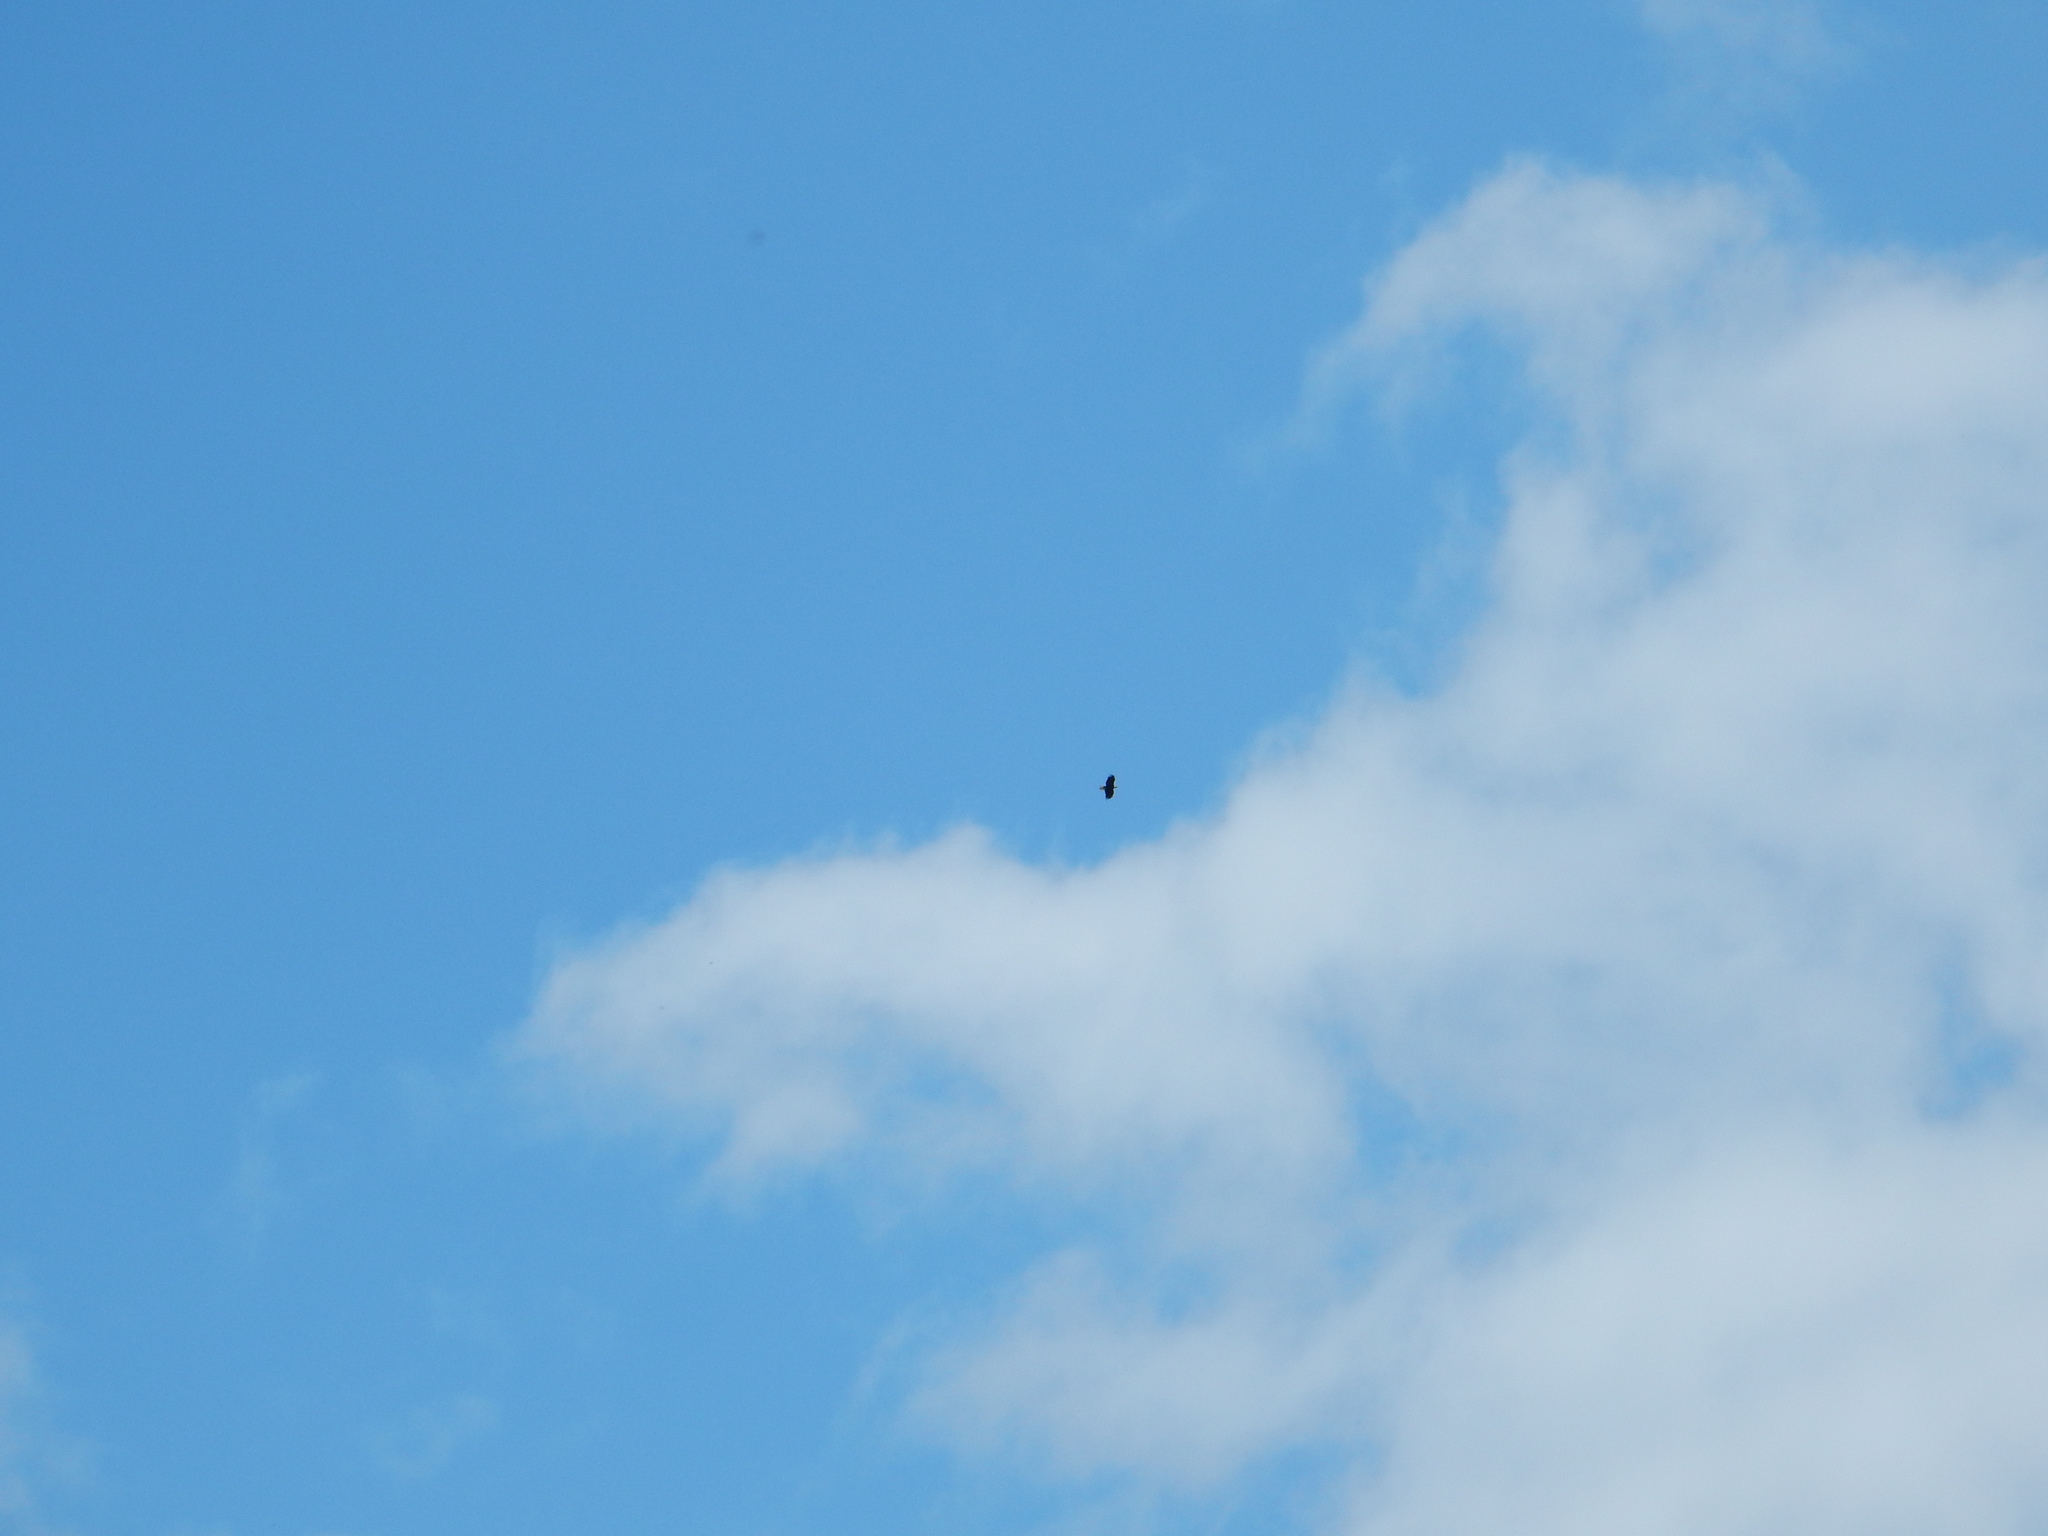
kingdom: Animalia
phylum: Chordata
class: Aves
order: Accipitriformes
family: Accipitridae
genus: Haliaeetus
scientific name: Haliaeetus leucocephalus
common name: Bald eagle
